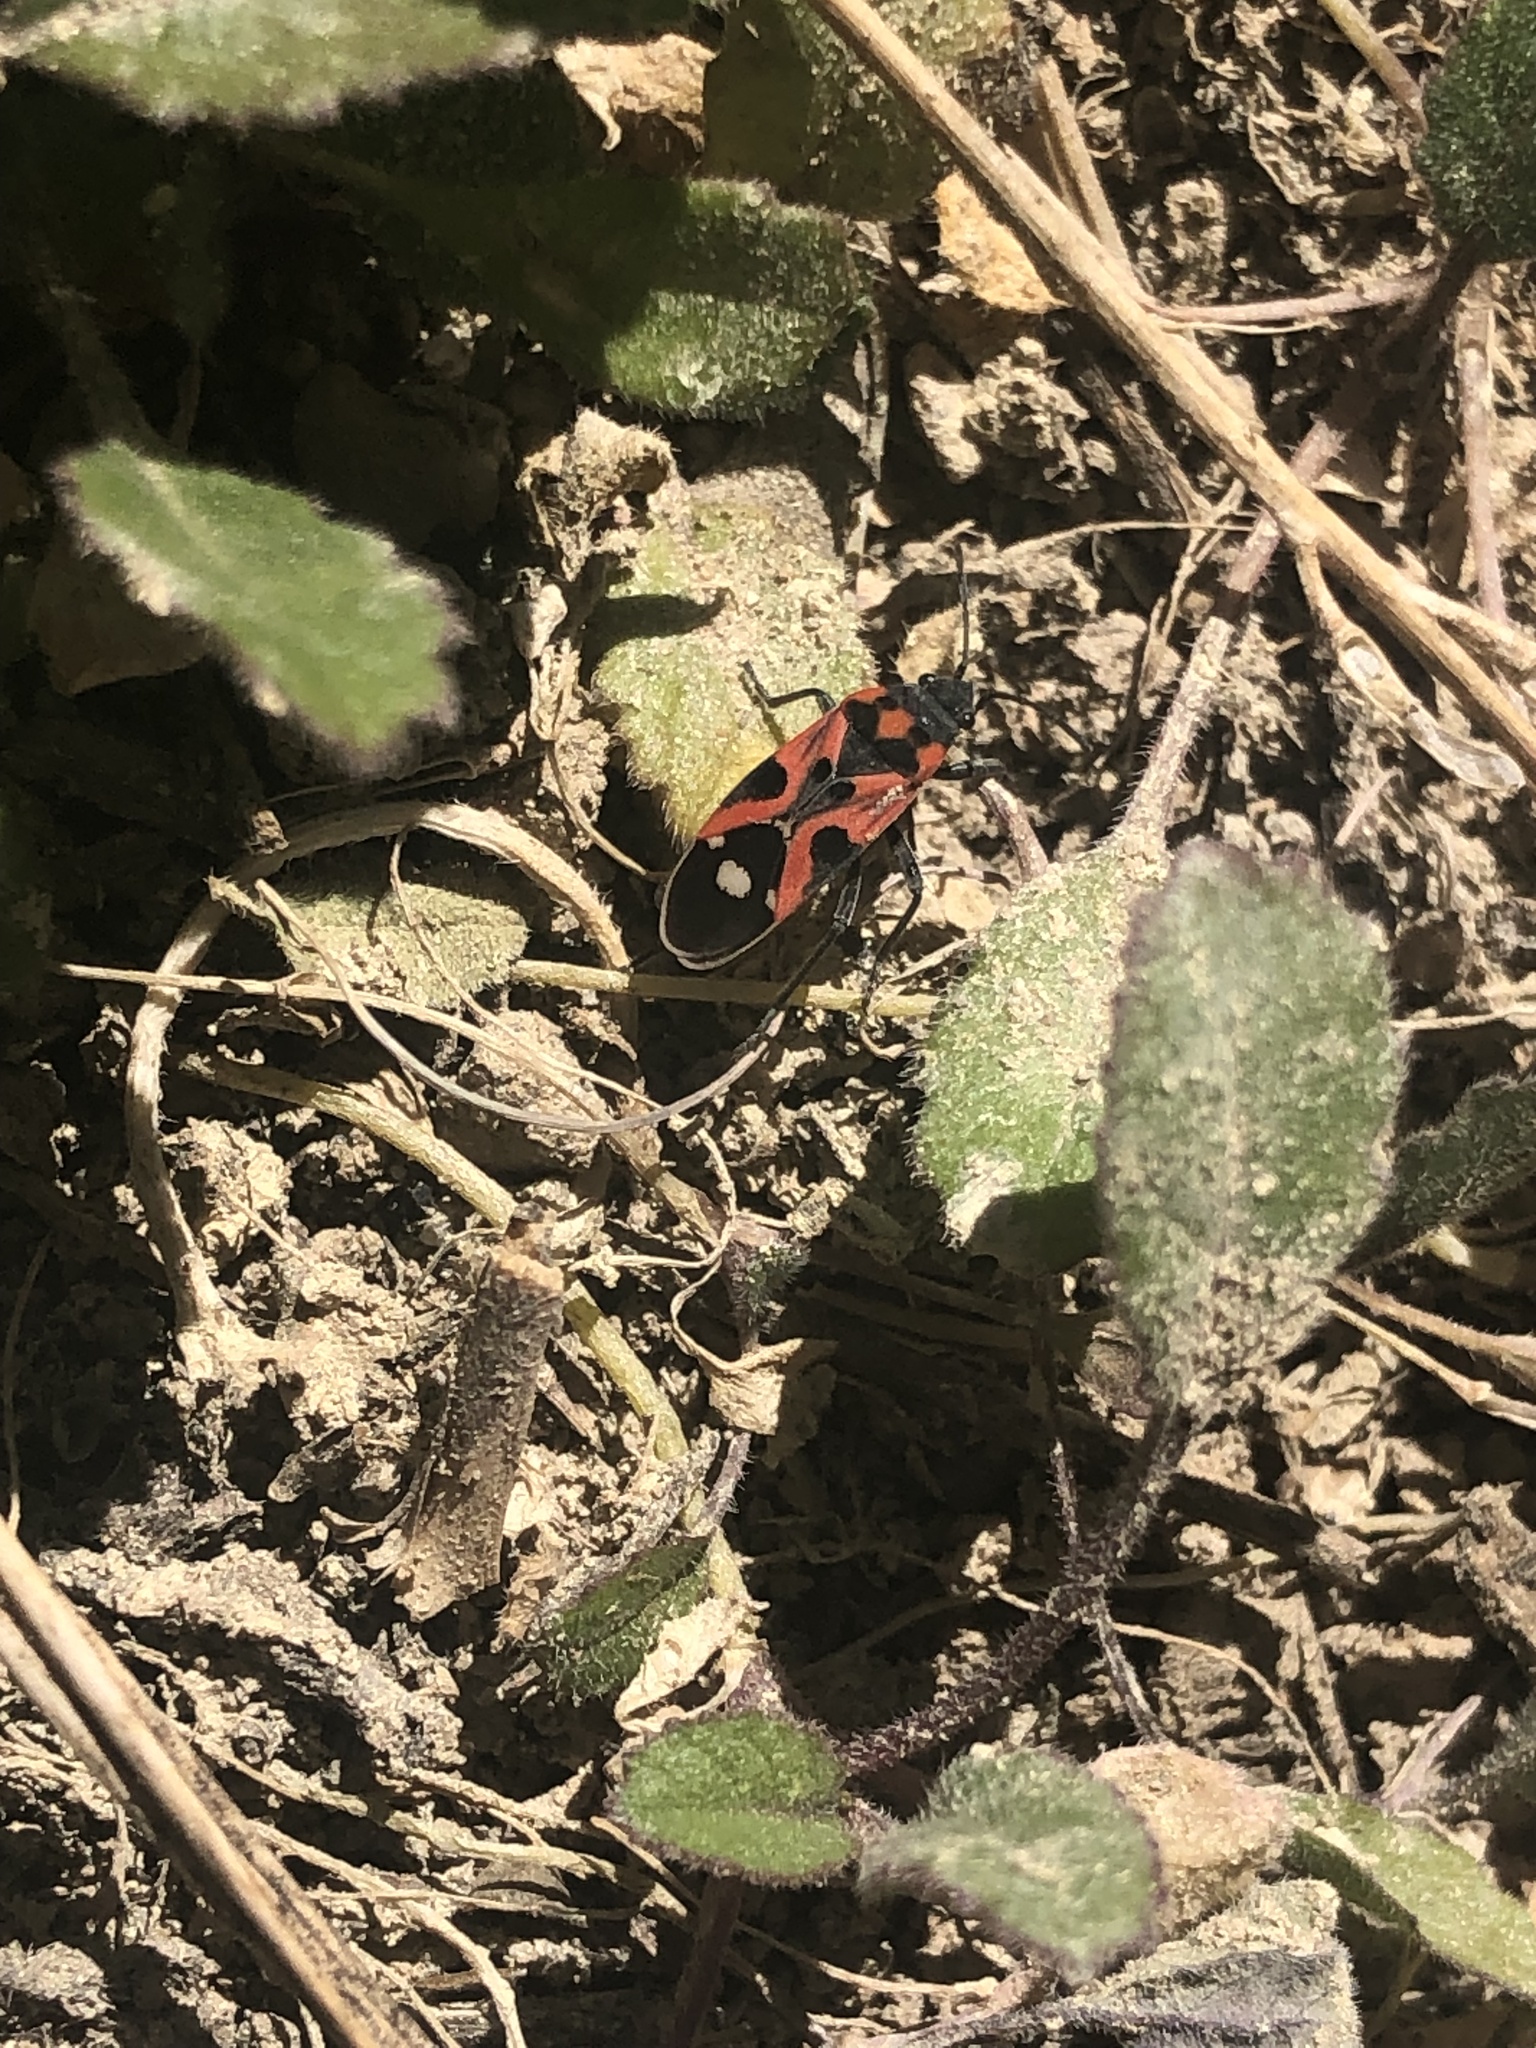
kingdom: Animalia
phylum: Arthropoda
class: Insecta
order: Hemiptera
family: Lygaeidae
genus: Lygaeus
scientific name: Lygaeus alboornatus
